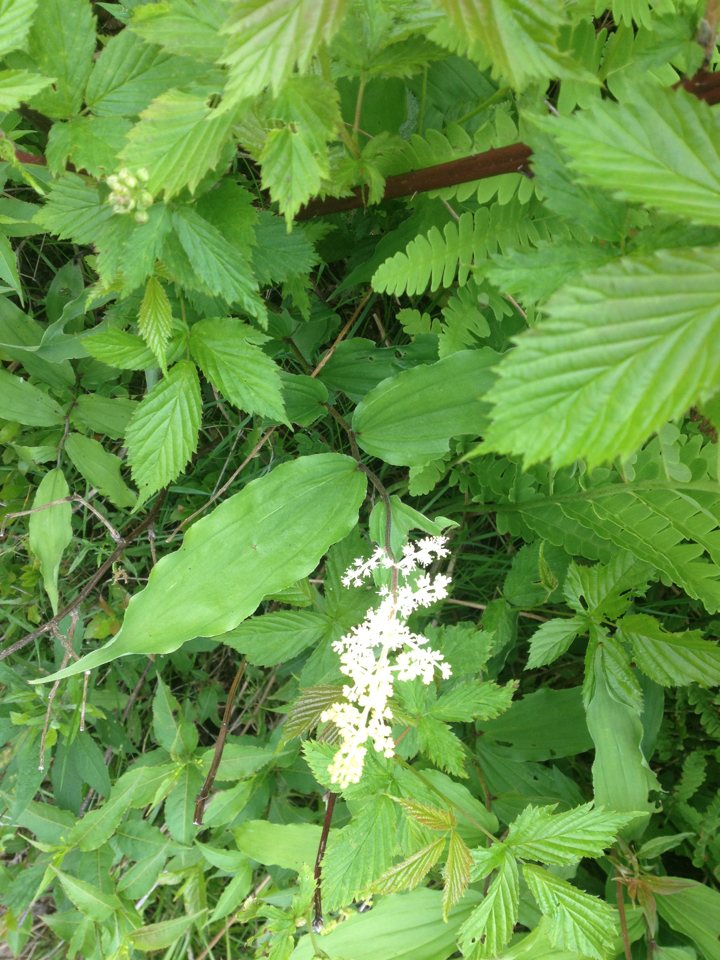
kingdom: Plantae
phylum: Tracheophyta
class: Liliopsida
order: Asparagales
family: Asparagaceae
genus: Maianthemum
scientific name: Maianthemum racemosum
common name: False spikenard
